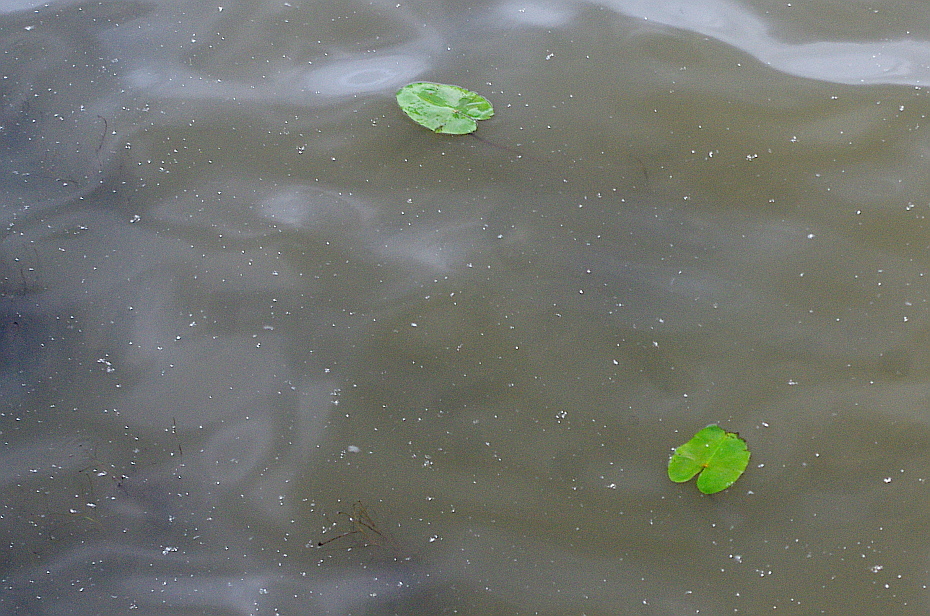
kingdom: Plantae
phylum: Tracheophyta
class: Magnoliopsida
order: Nymphaeales
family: Nymphaeaceae
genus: Nuphar
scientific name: Nuphar lutea
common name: Yellow water-lily
